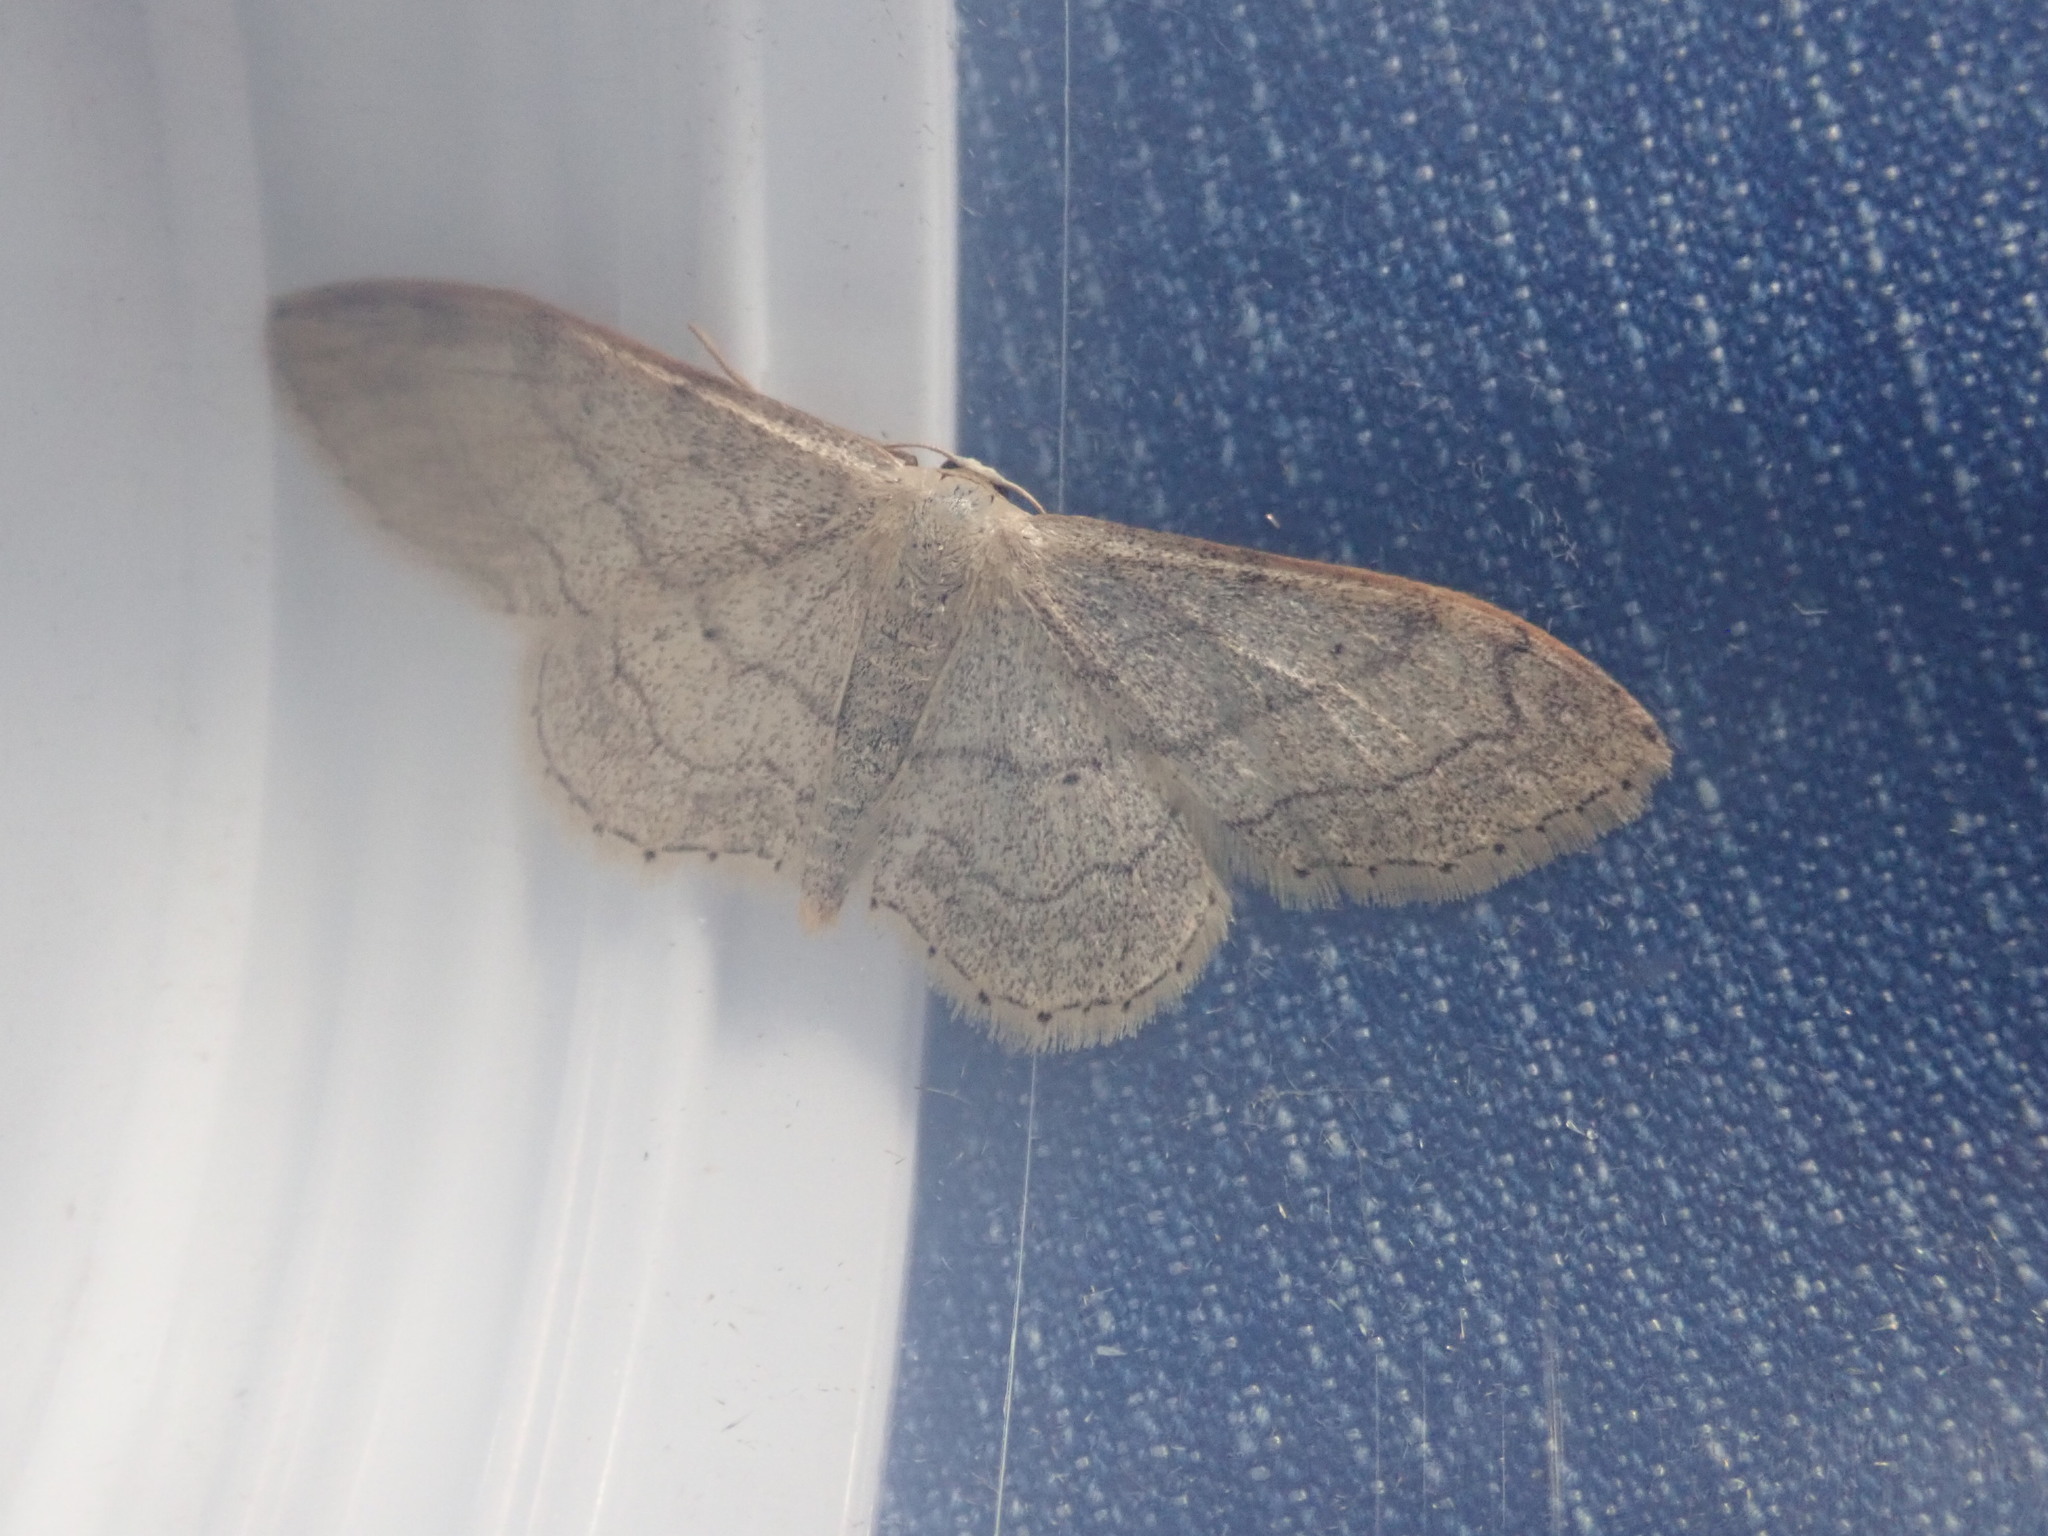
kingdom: Animalia
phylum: Arthropoda
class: Insecta
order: Lepidoptera
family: Geometridae
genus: Idaea
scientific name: Idaea aversata
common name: Riband wave
